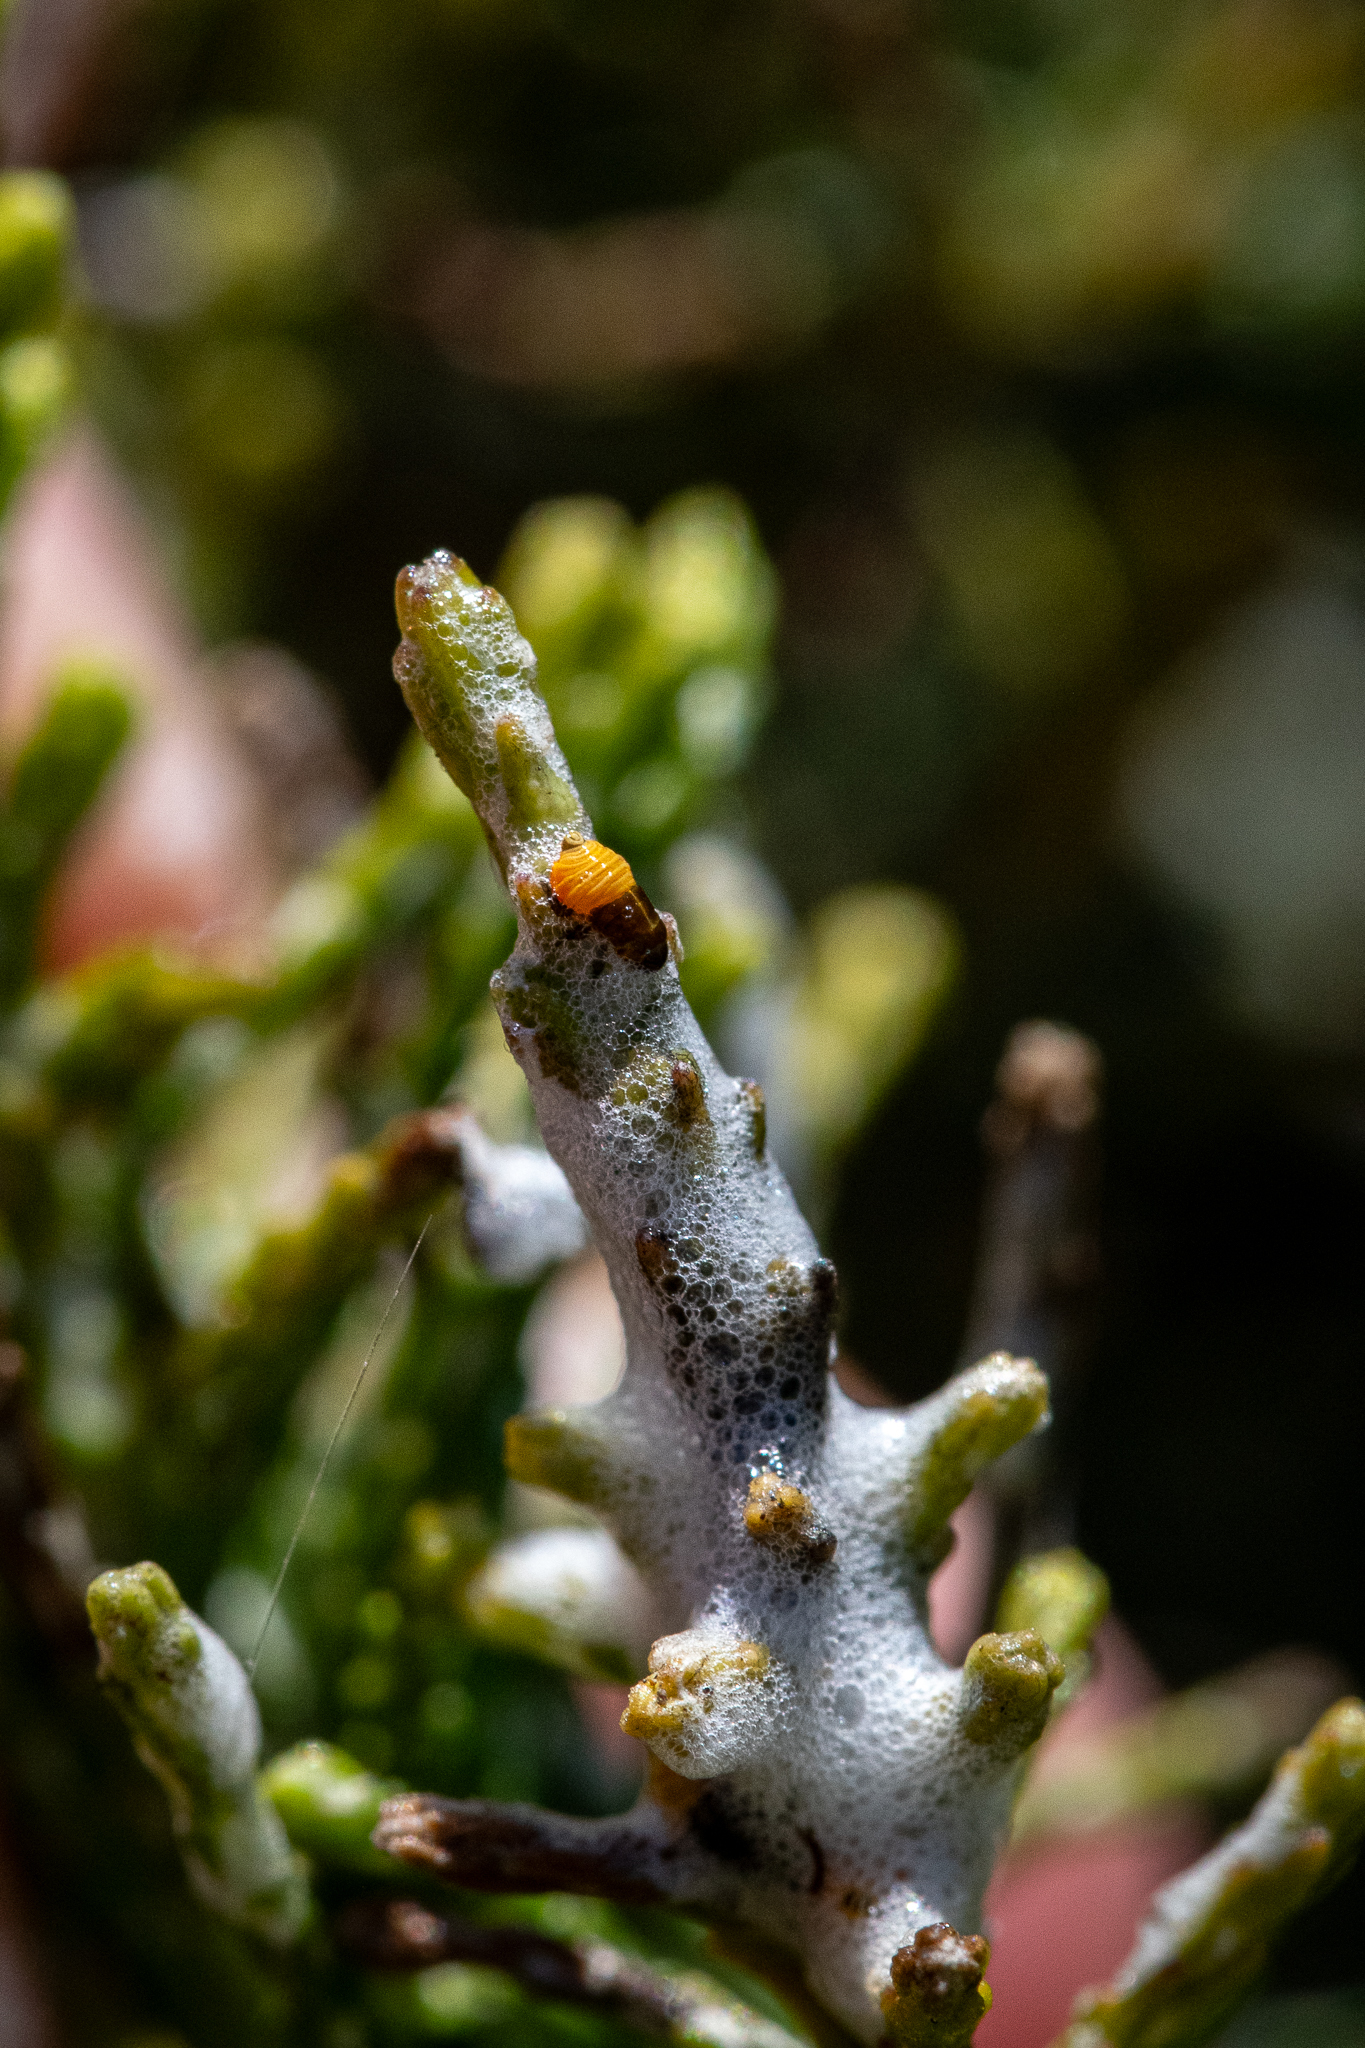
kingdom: Animalia
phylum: Arthropoda
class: Insecta
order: Hemiptera
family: Aphrophoridae
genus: Tremapterus
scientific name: Tremapterus
